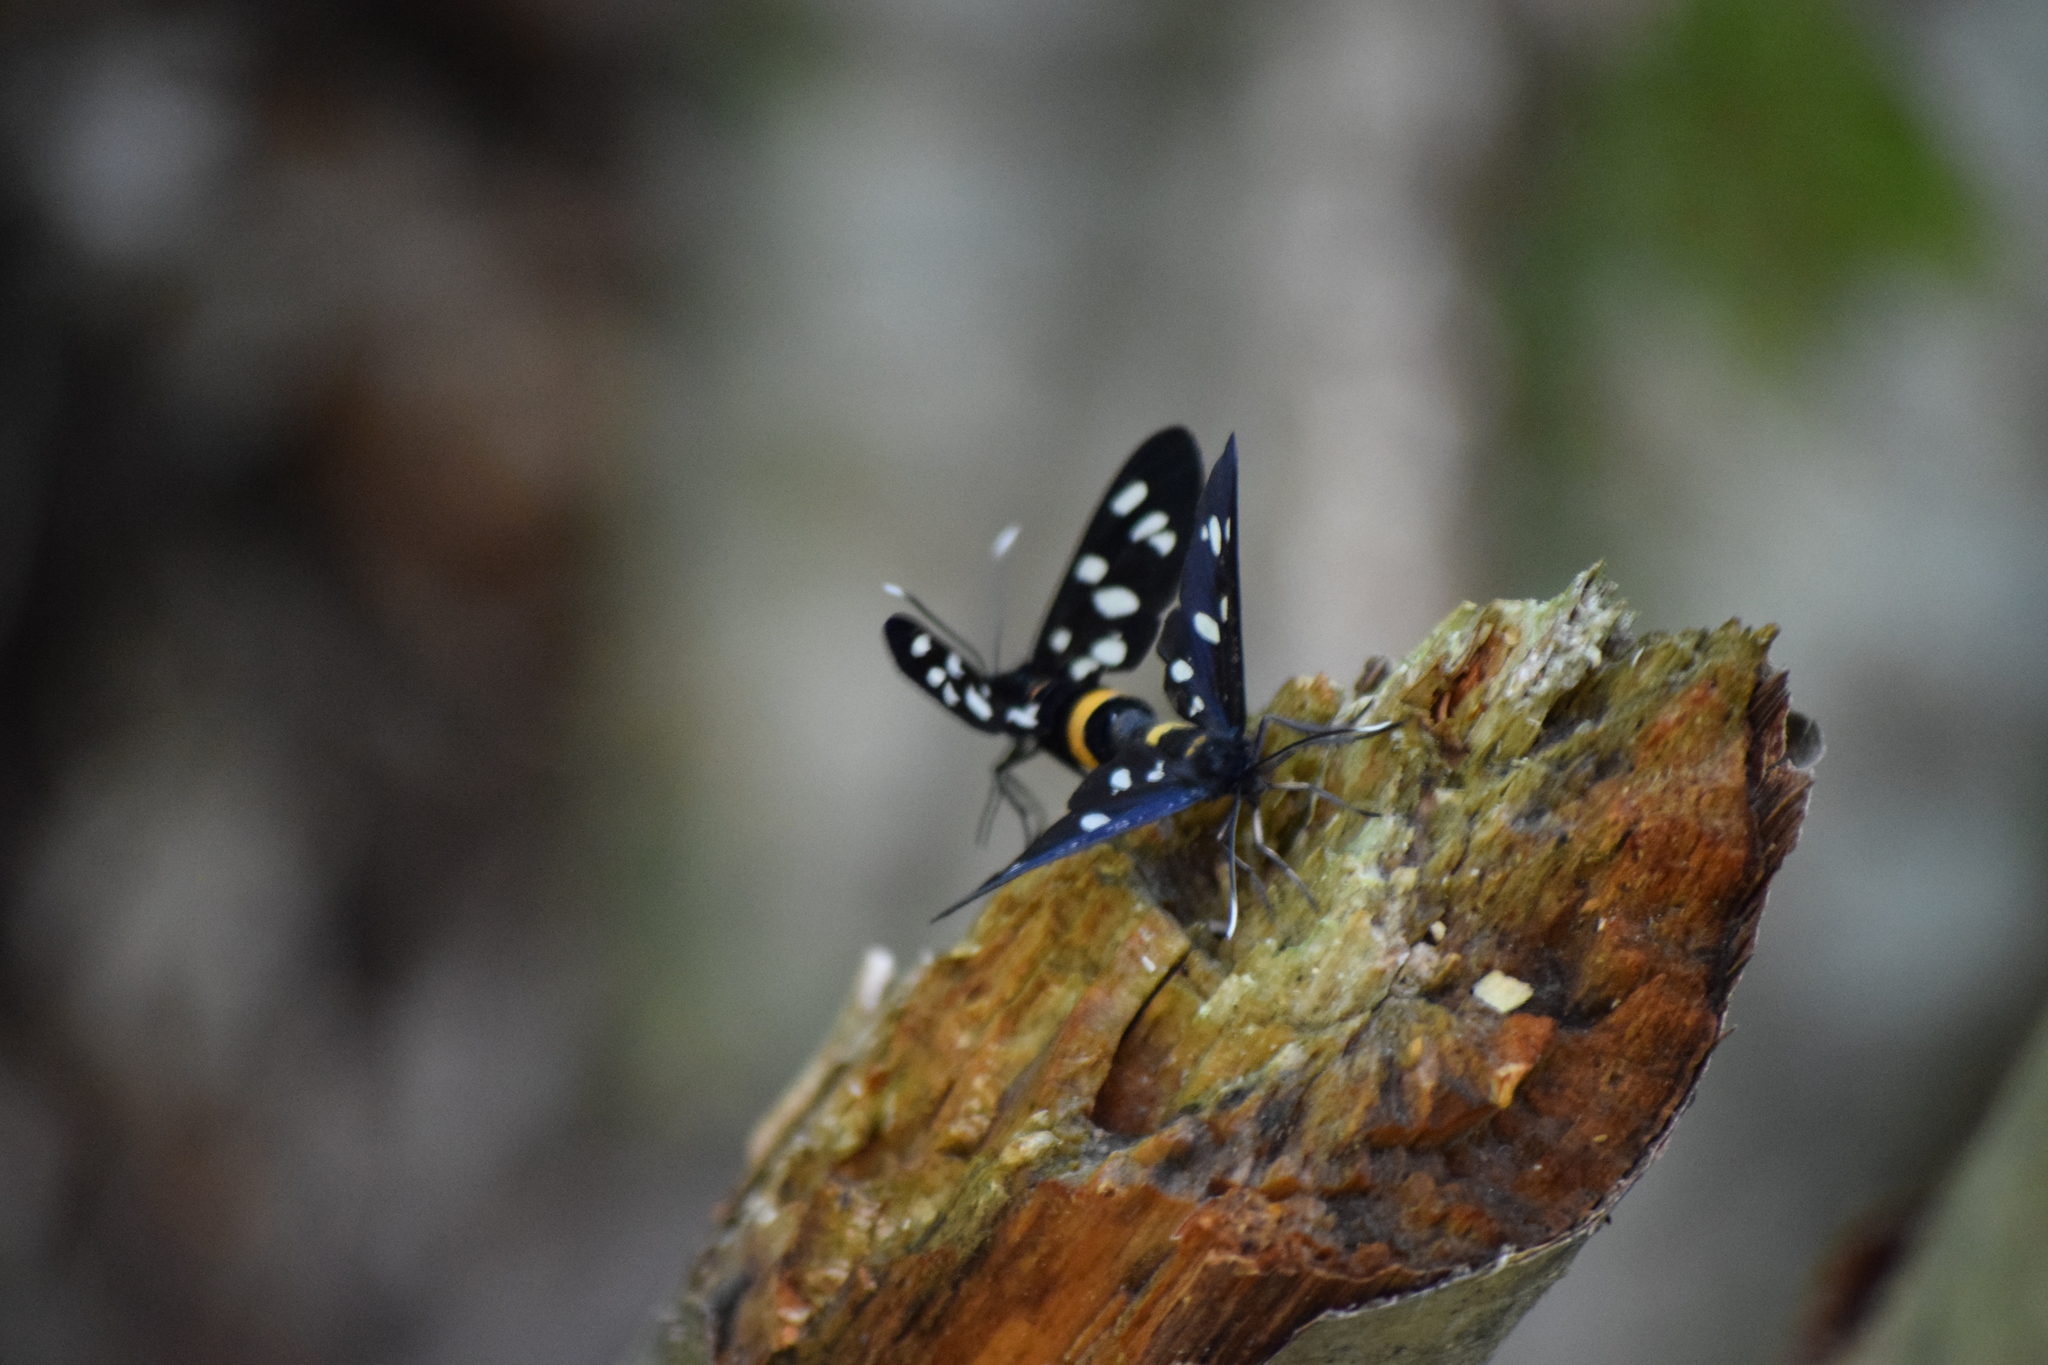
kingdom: Animalia
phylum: Arthropoda
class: Insecta
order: Lepidoptera
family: Erebidae
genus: Amata
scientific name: Amata phegea
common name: Nine-spotted
